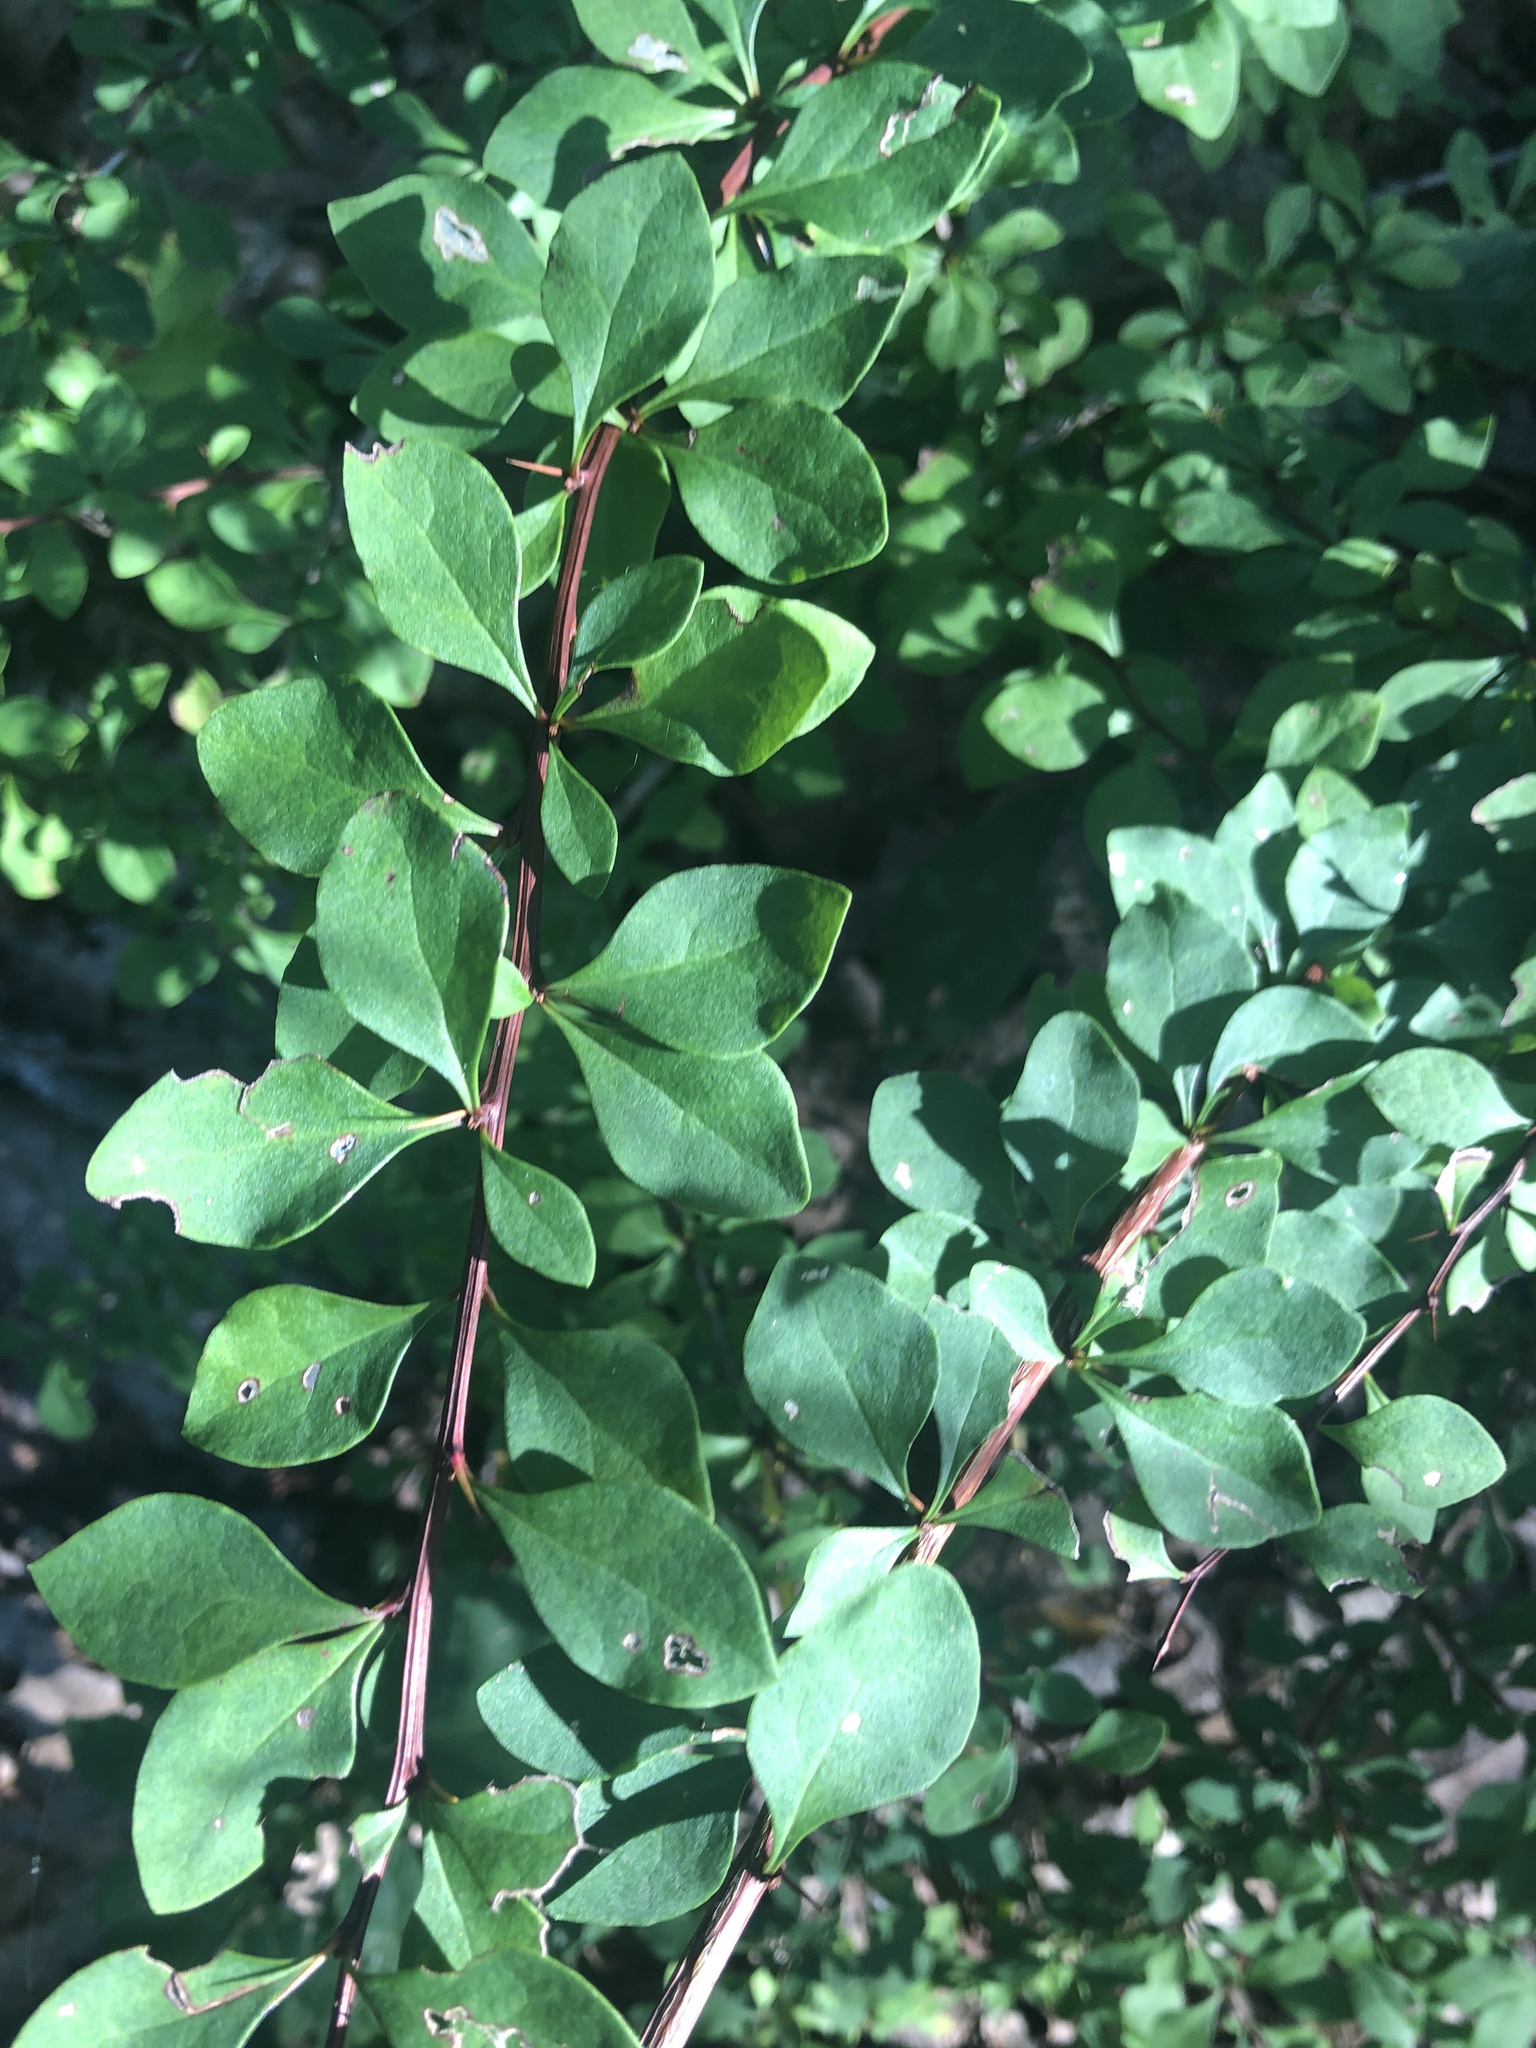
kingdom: Plantae
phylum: Tracheophyta
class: Magnoliopsida
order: Ranunculales
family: Berberidaceae
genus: Berberis
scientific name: Berberis thunbergii
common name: Japanese barberry
